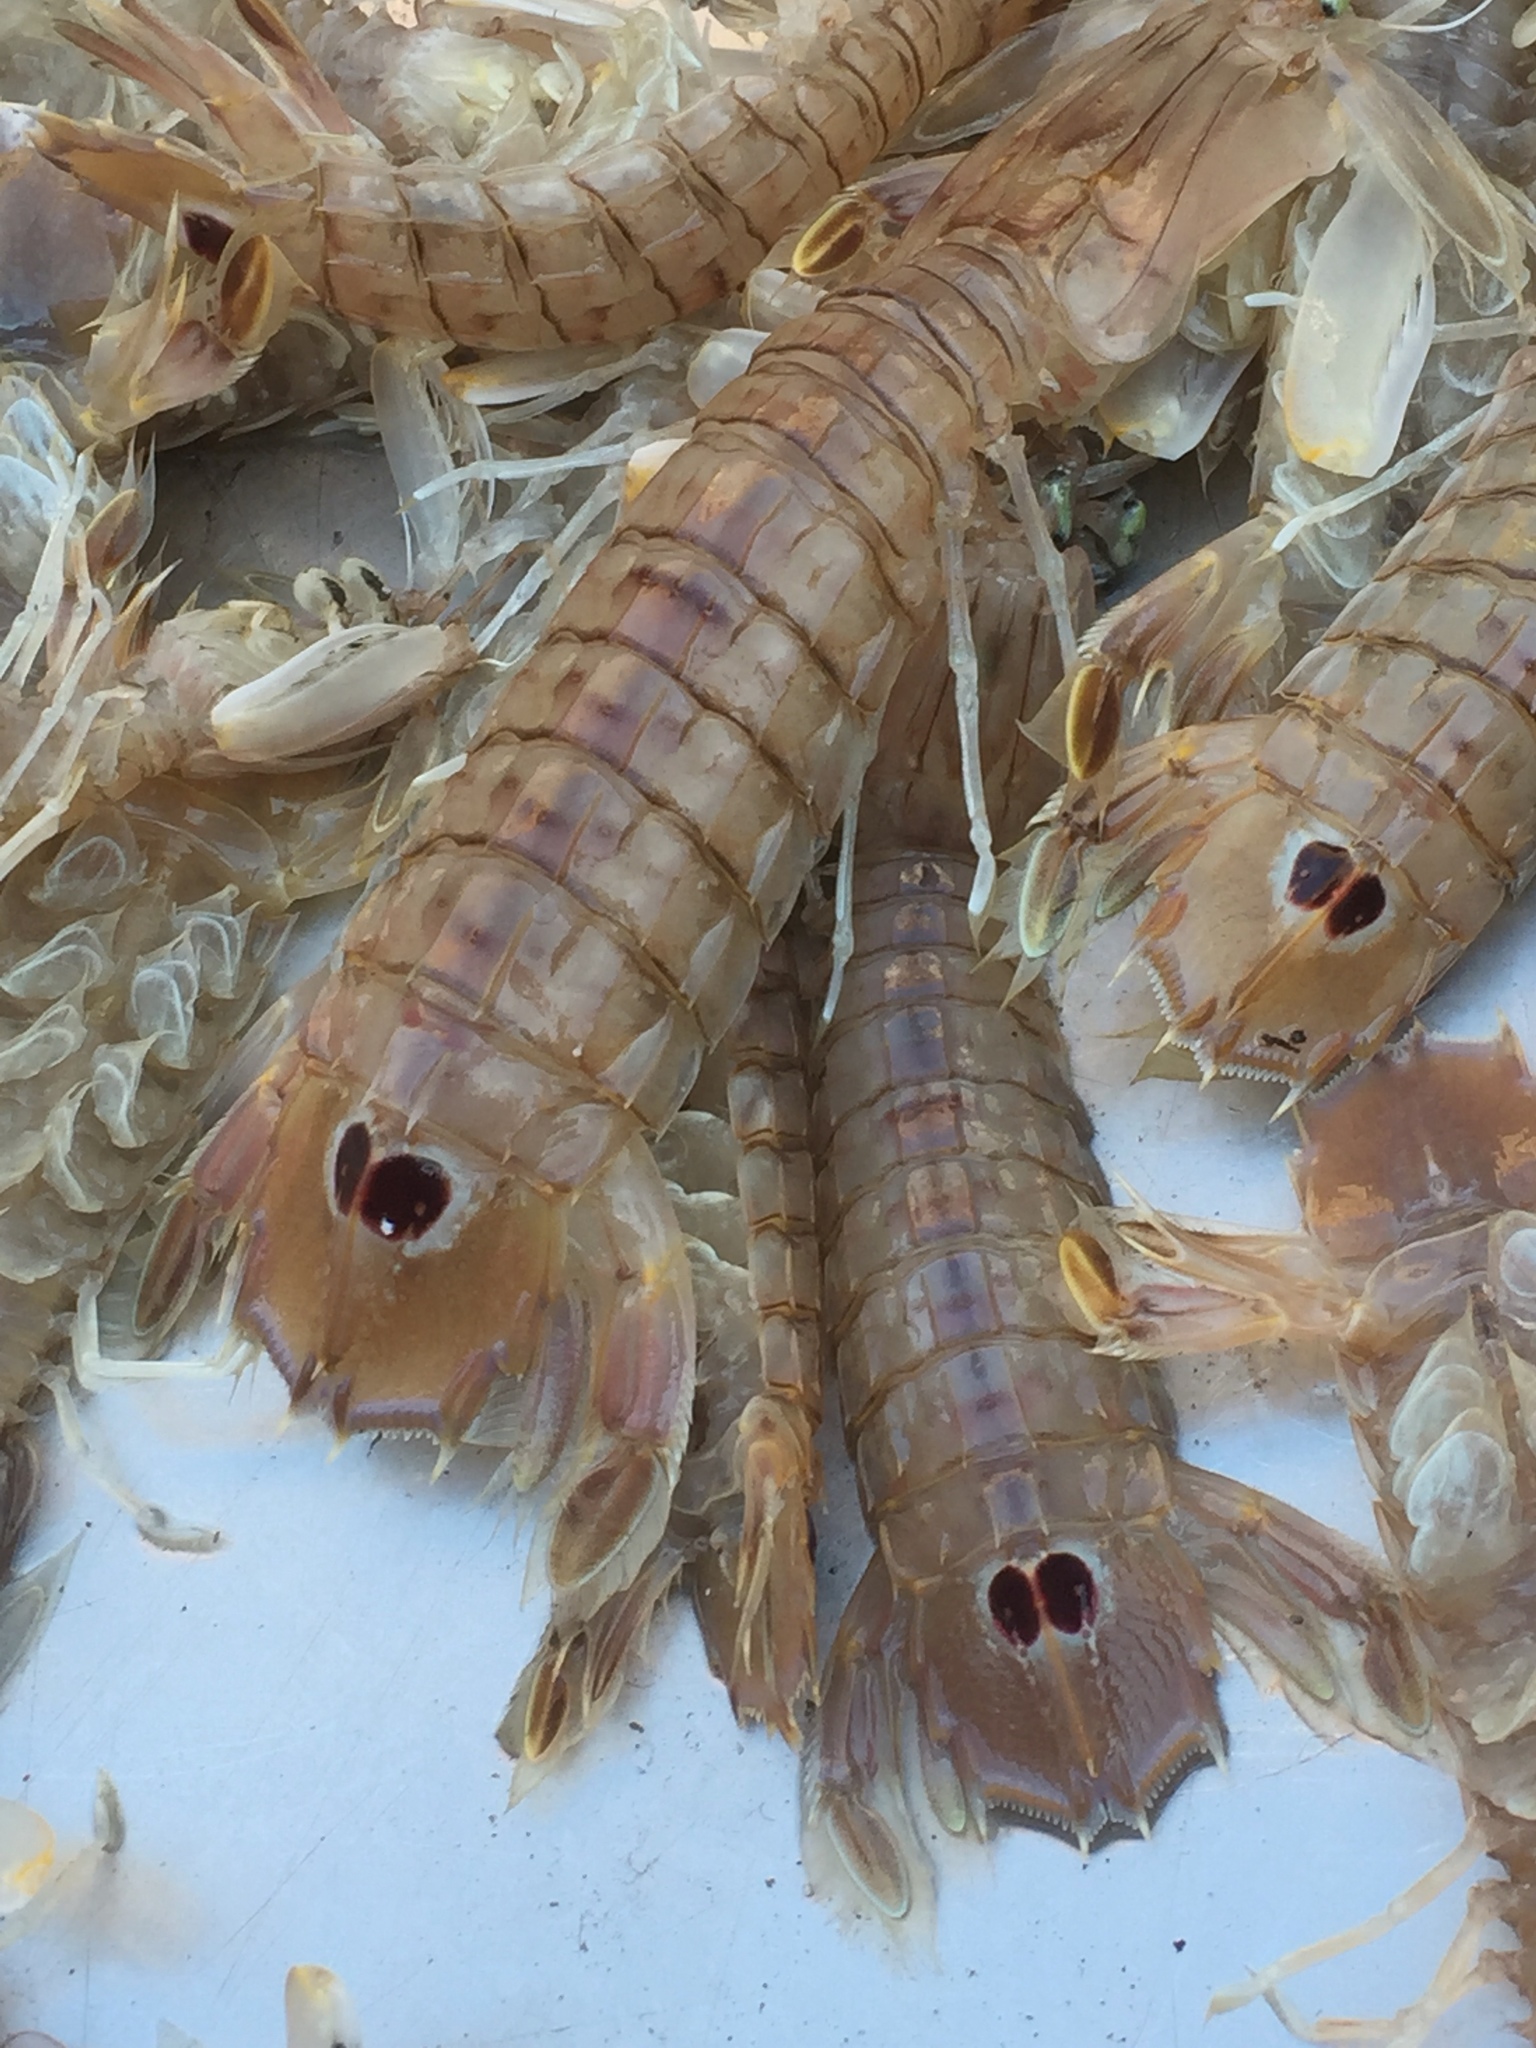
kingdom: Animalia
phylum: Arthropoda
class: Malacostraca
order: Stomatopoda
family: Squillidae
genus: Squilla
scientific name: Squilla mantis
